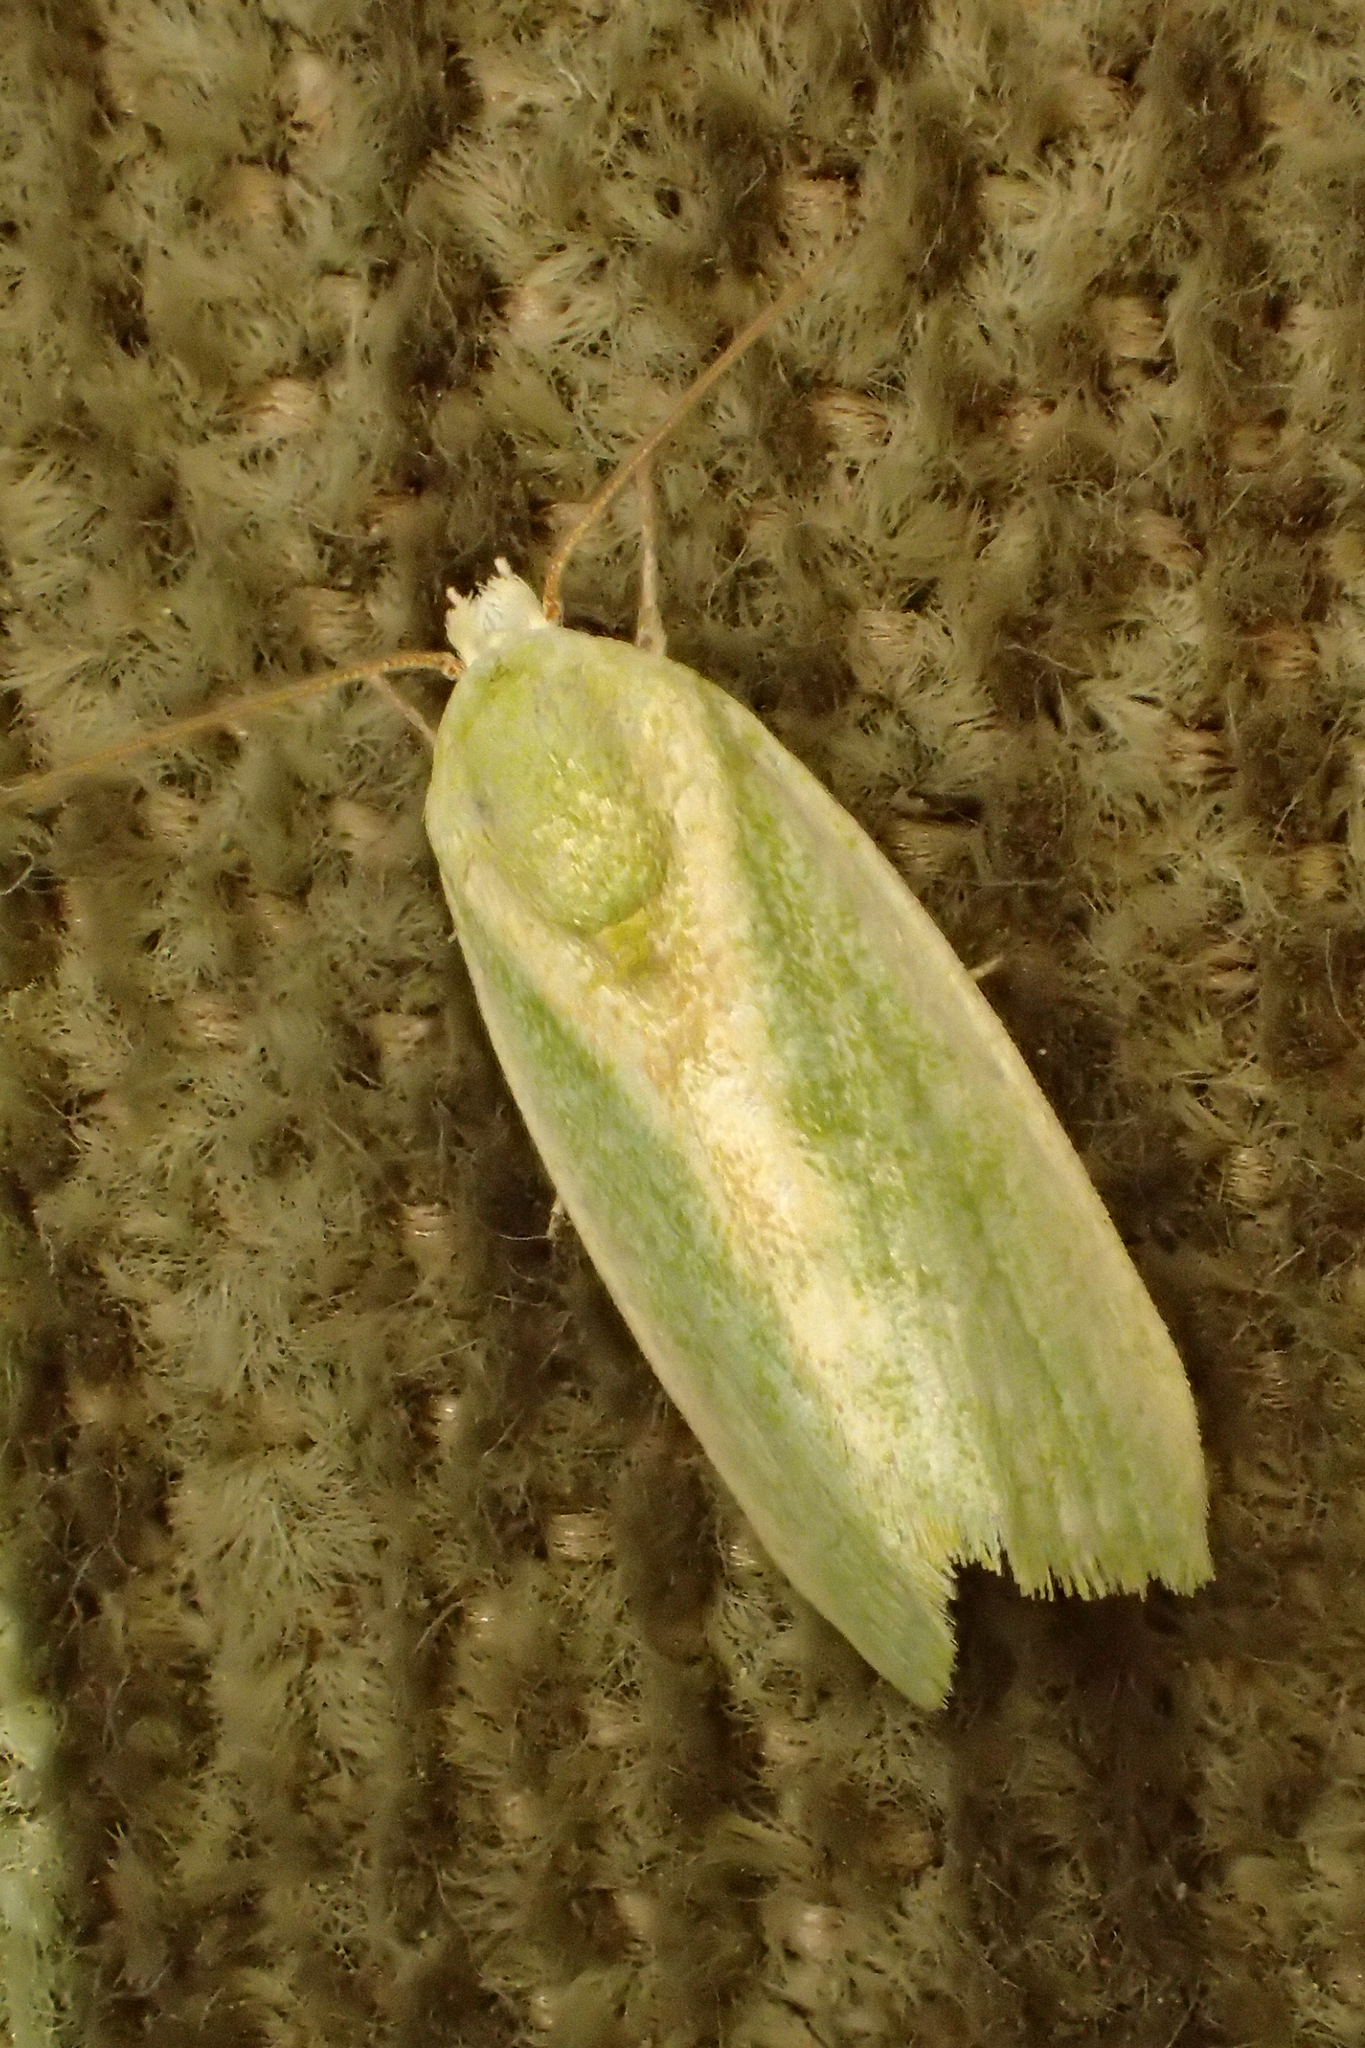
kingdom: Animalia
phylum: Arthropoda
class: Insecta
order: Lepidoptera
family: Nolidae
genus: Earias
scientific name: Earias insulana
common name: Egyptian bollworm
